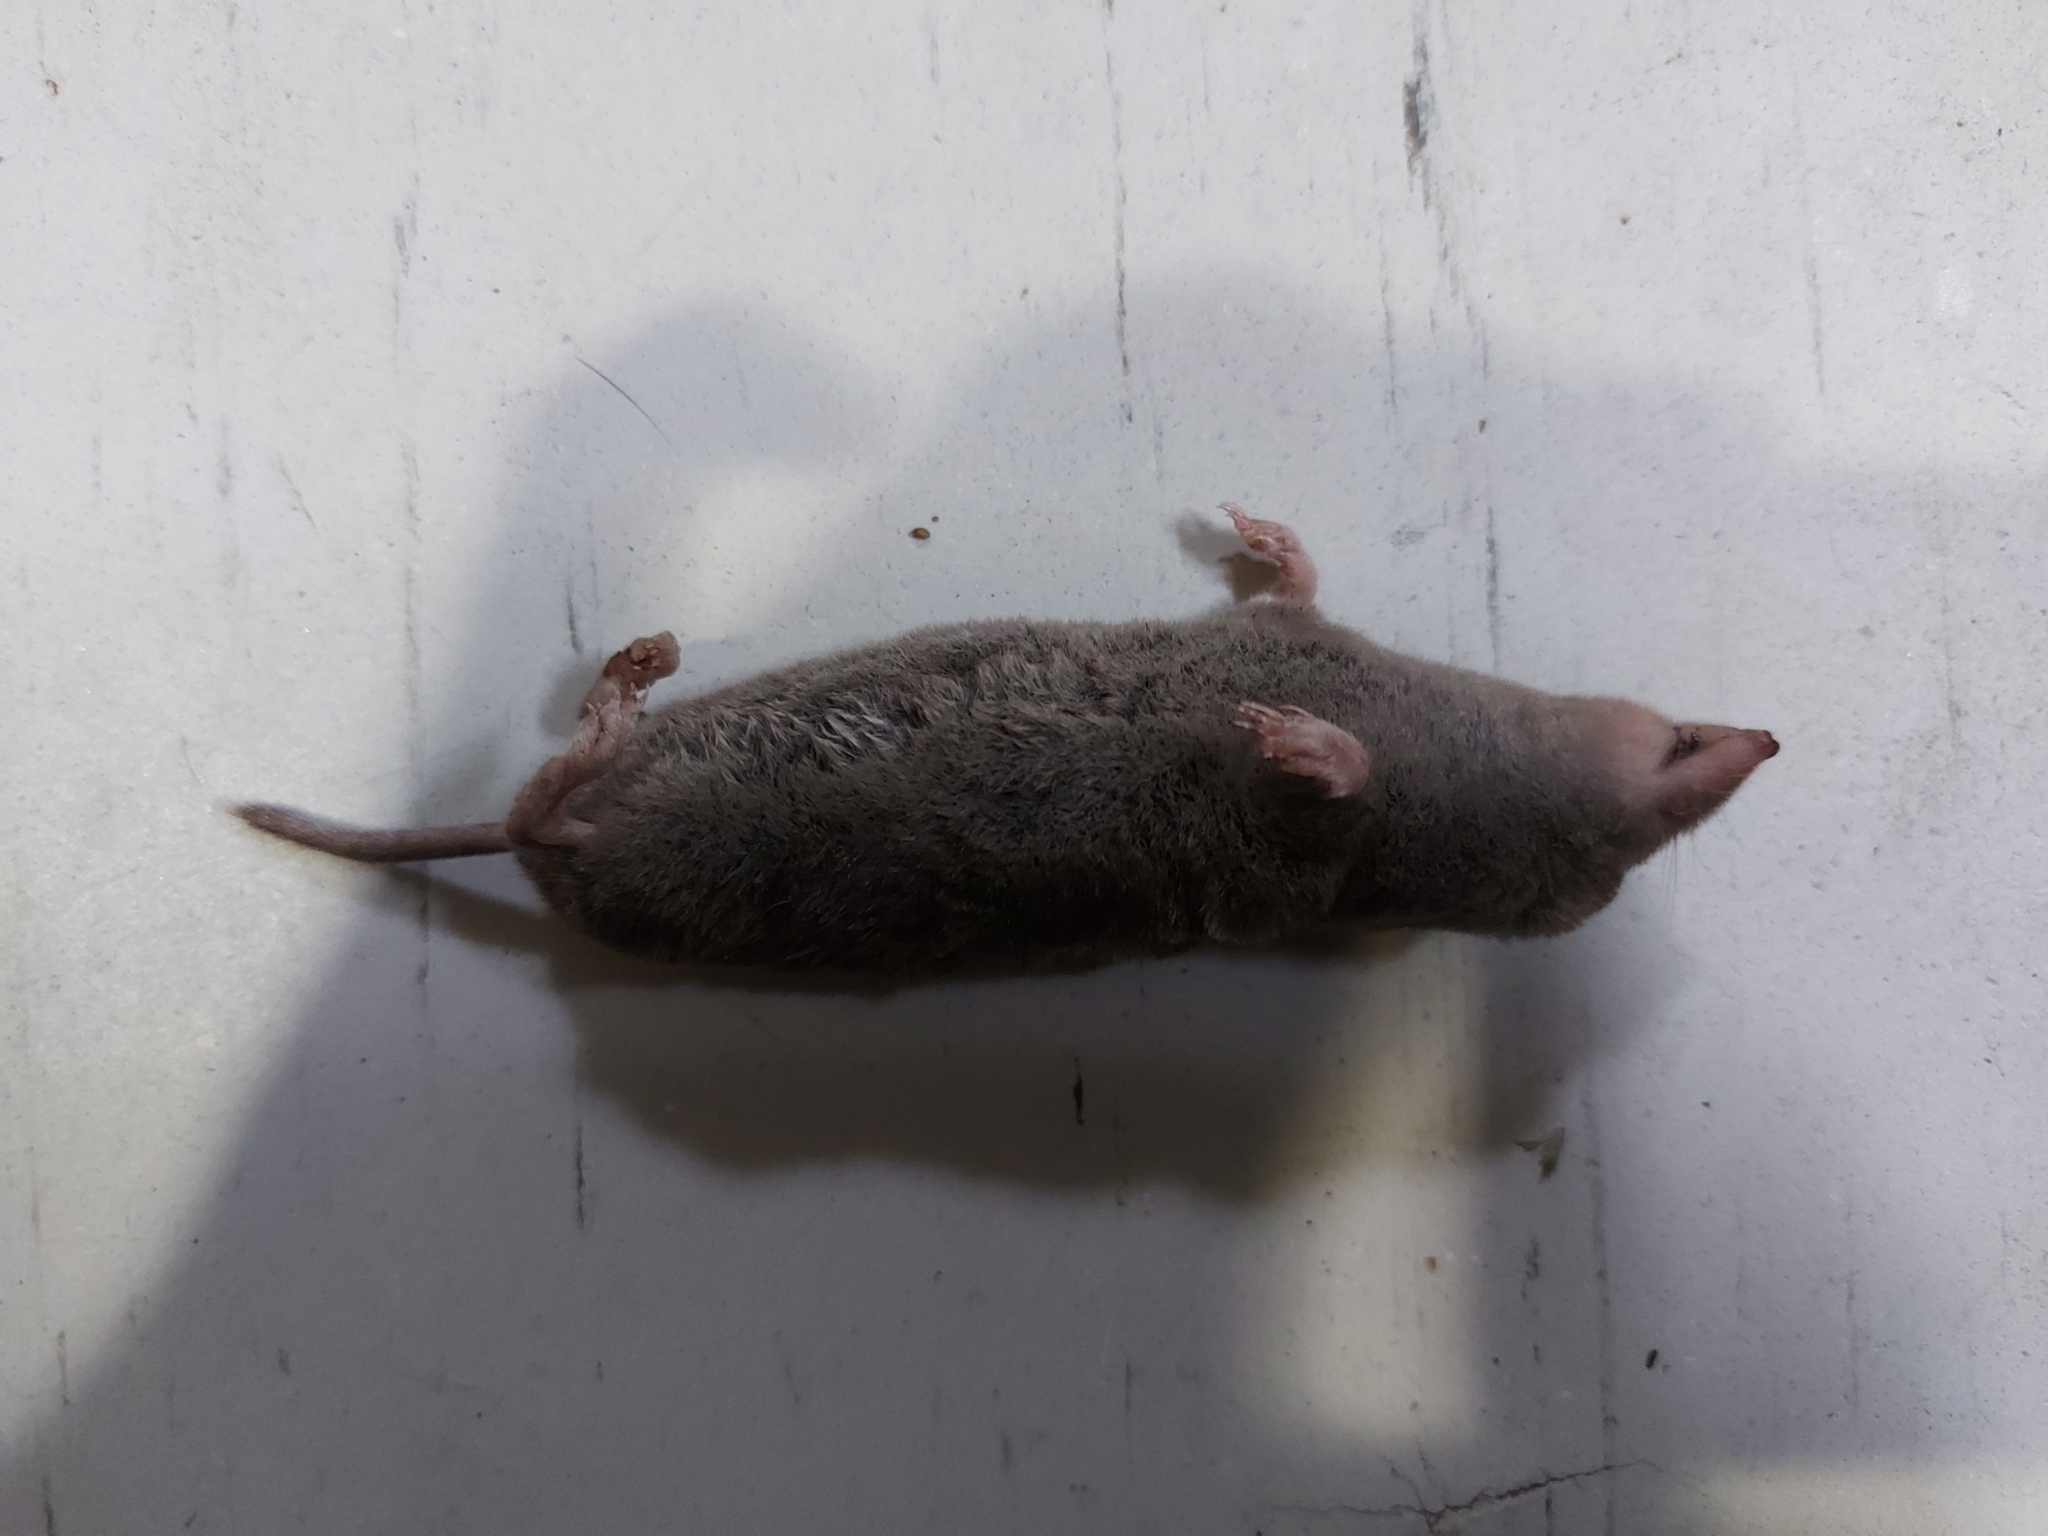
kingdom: Animalia
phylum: Chordata
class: Mammalia
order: Soricomorpha
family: Soricidae
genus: Blarina
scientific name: Blarina brevicauda
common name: Northern short-tailed shrew
